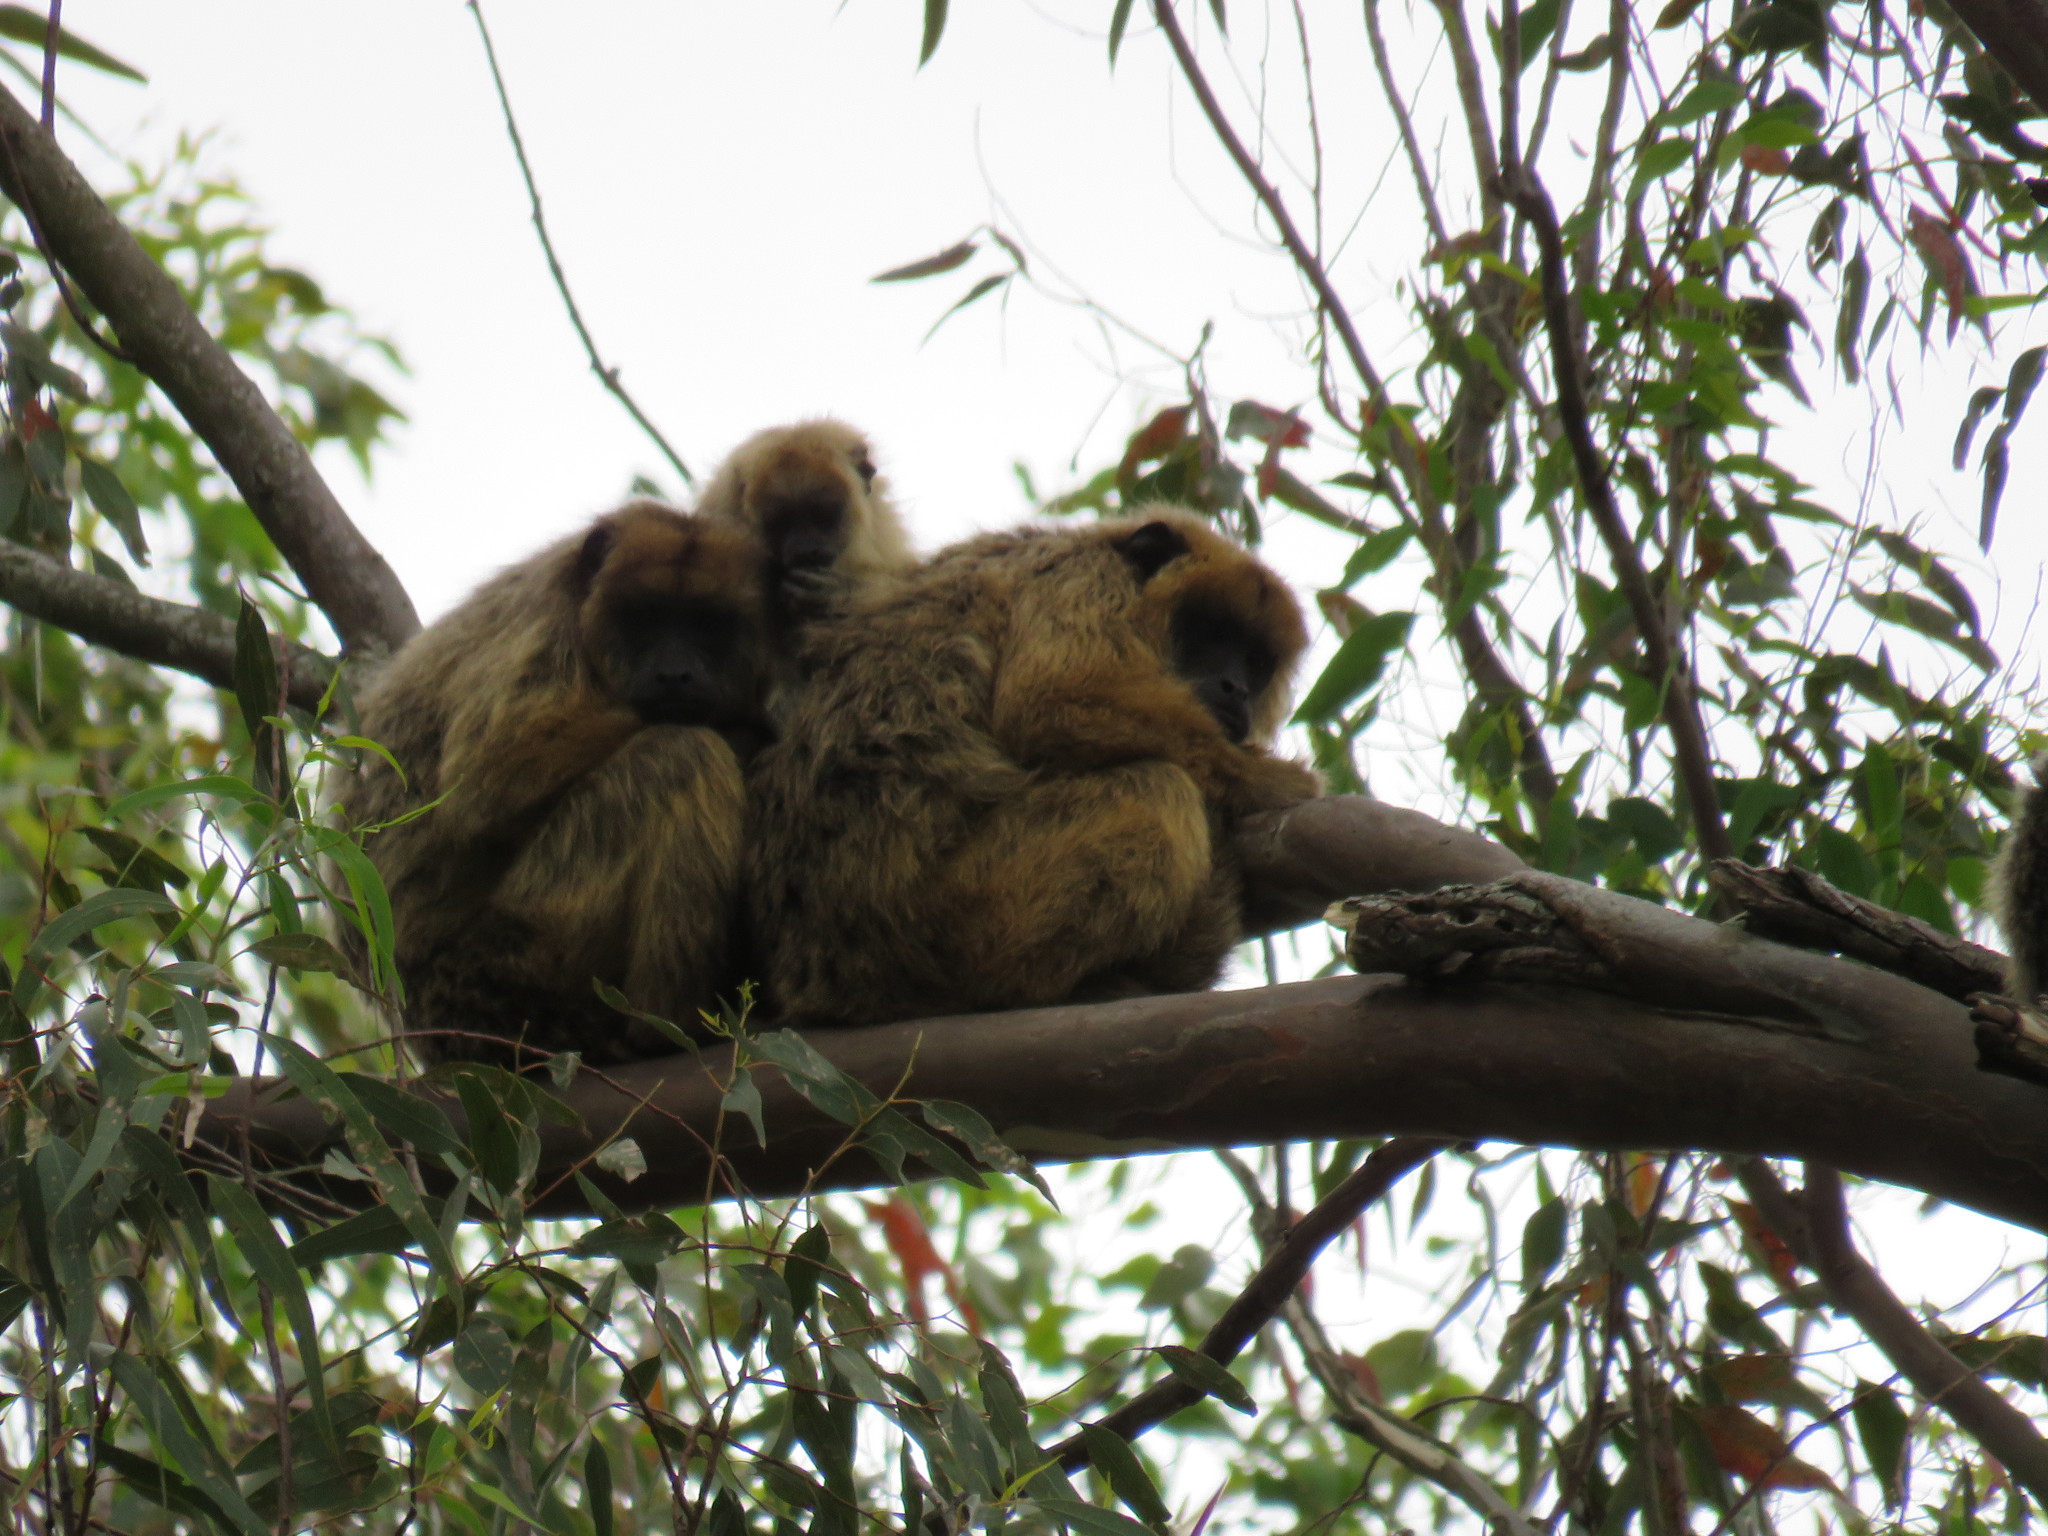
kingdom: Animalia
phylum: Chordata
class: Mammalia
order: Primates
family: Atelidae
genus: Alouatta
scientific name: Alouatta caraya
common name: Black howler
